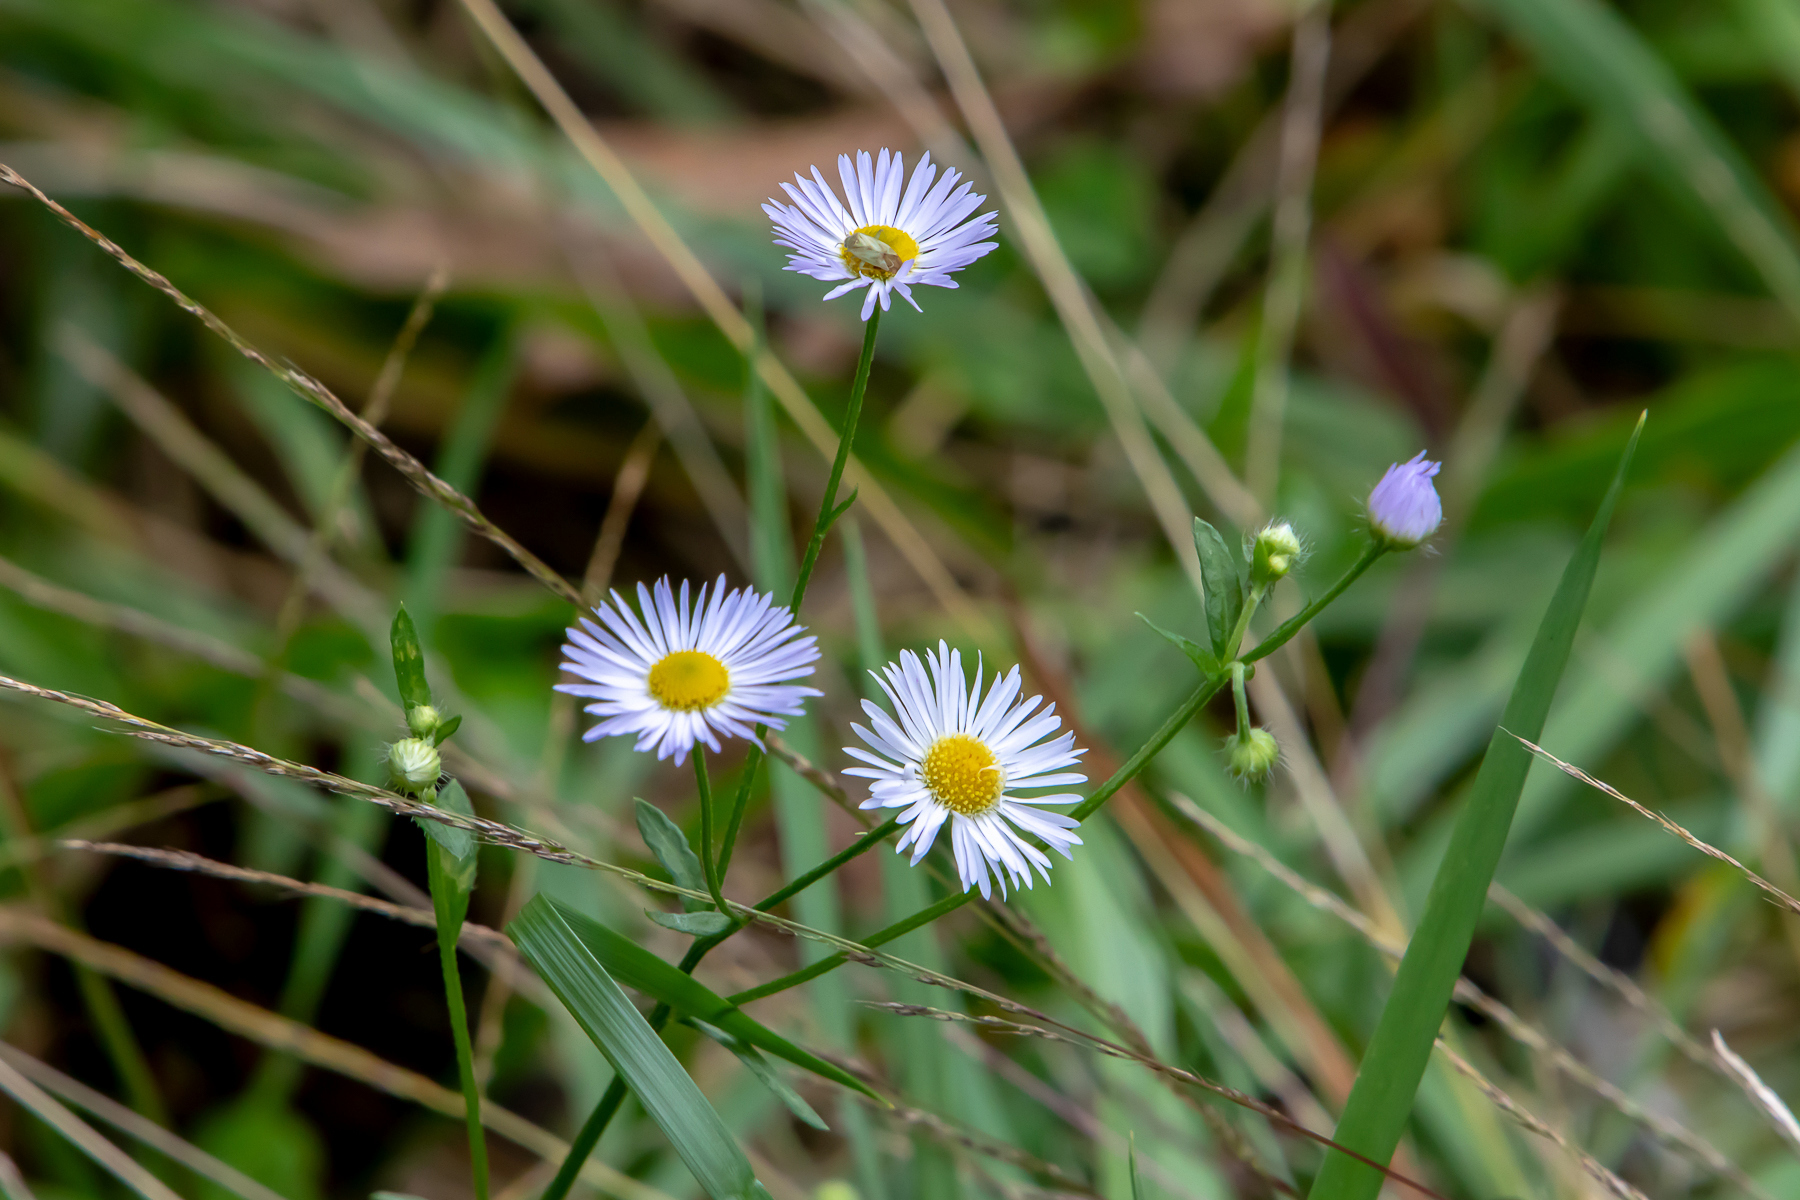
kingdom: Plantae
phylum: Tracheophyta
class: Magnoliopsida
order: Asterales
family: Asteraceae
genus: Erigeron
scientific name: Erigeron strigosus
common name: Common eastern fleabane
